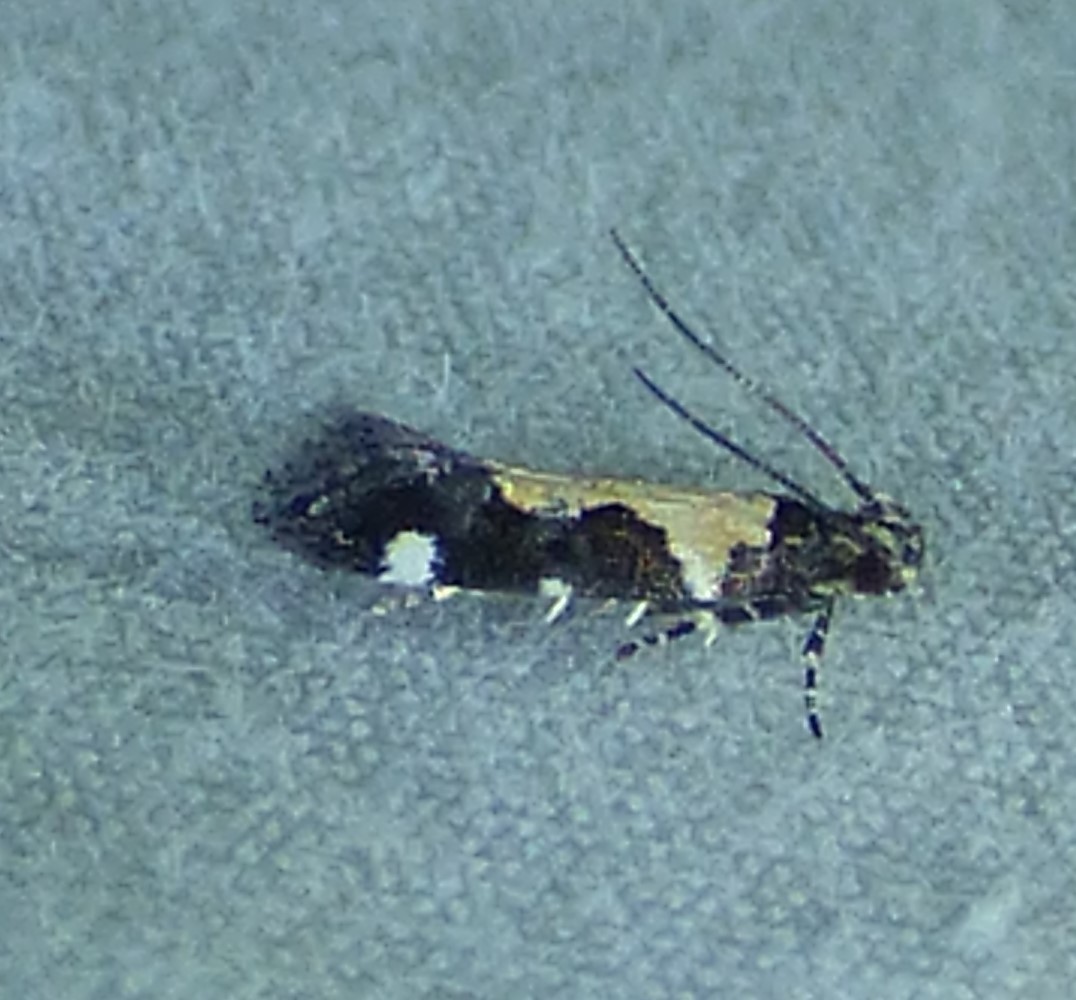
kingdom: Animalia
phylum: Arthropoda
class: Insecta
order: Lepidoptera
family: Gelechiidae
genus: Stegasta
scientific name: Stegasta bosqueella
